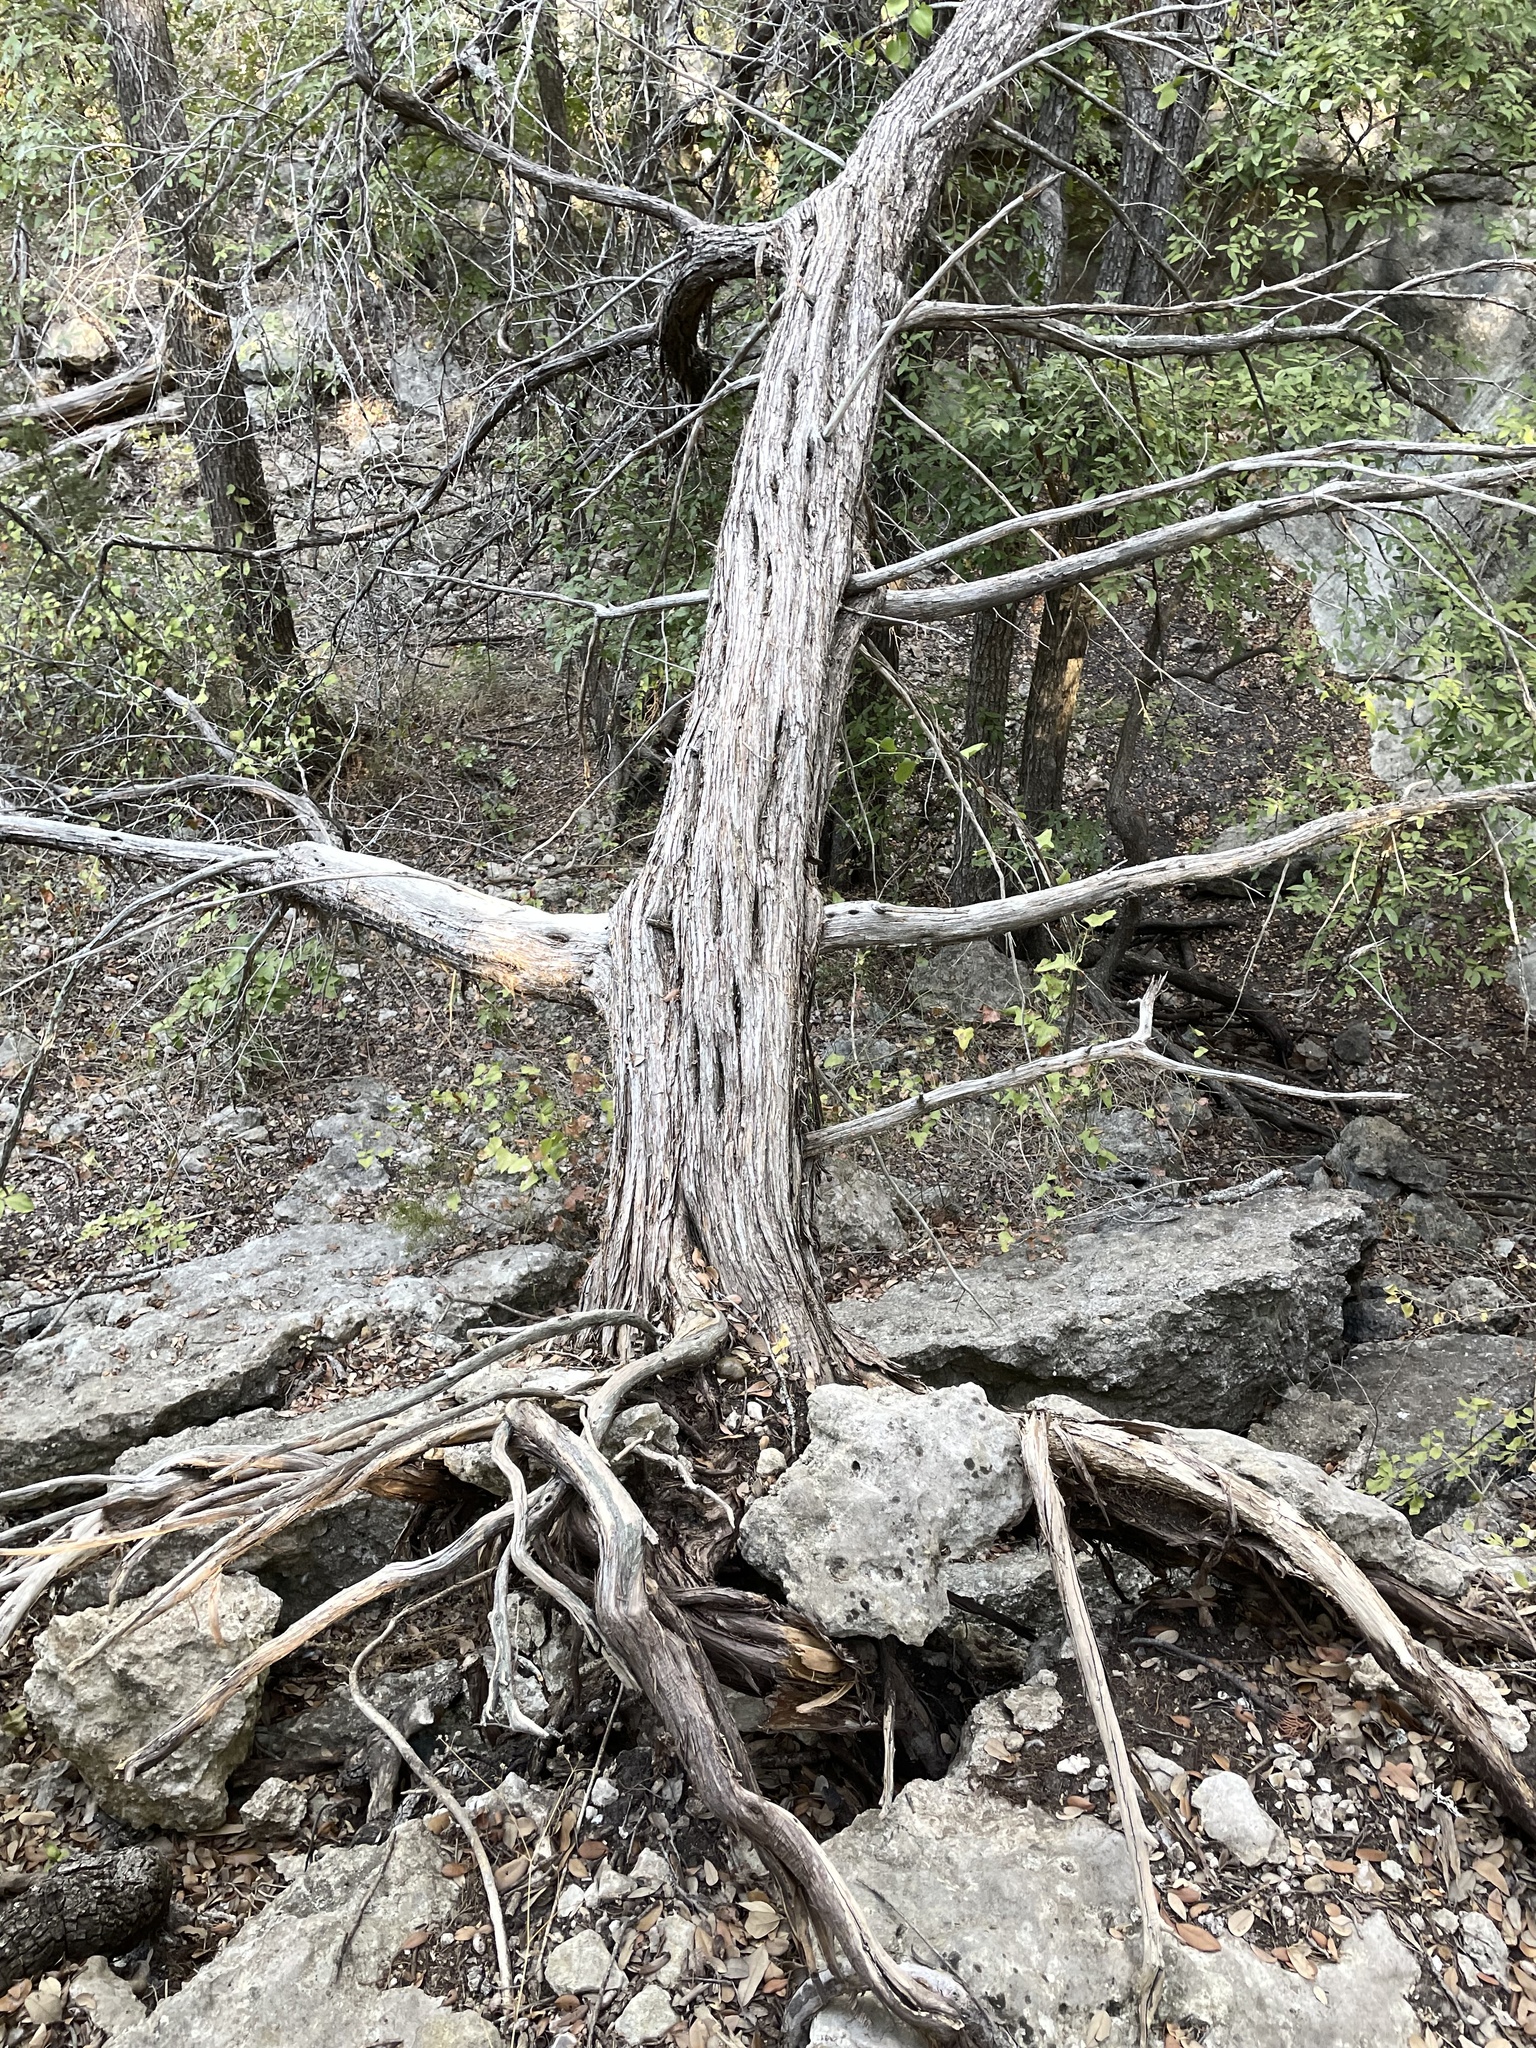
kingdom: Plantae
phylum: Tracheophyta
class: Pinopsida
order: Pinales
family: Cupressaceae
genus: Juniperus
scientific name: Juniperus ashei
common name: Mexican juniper
